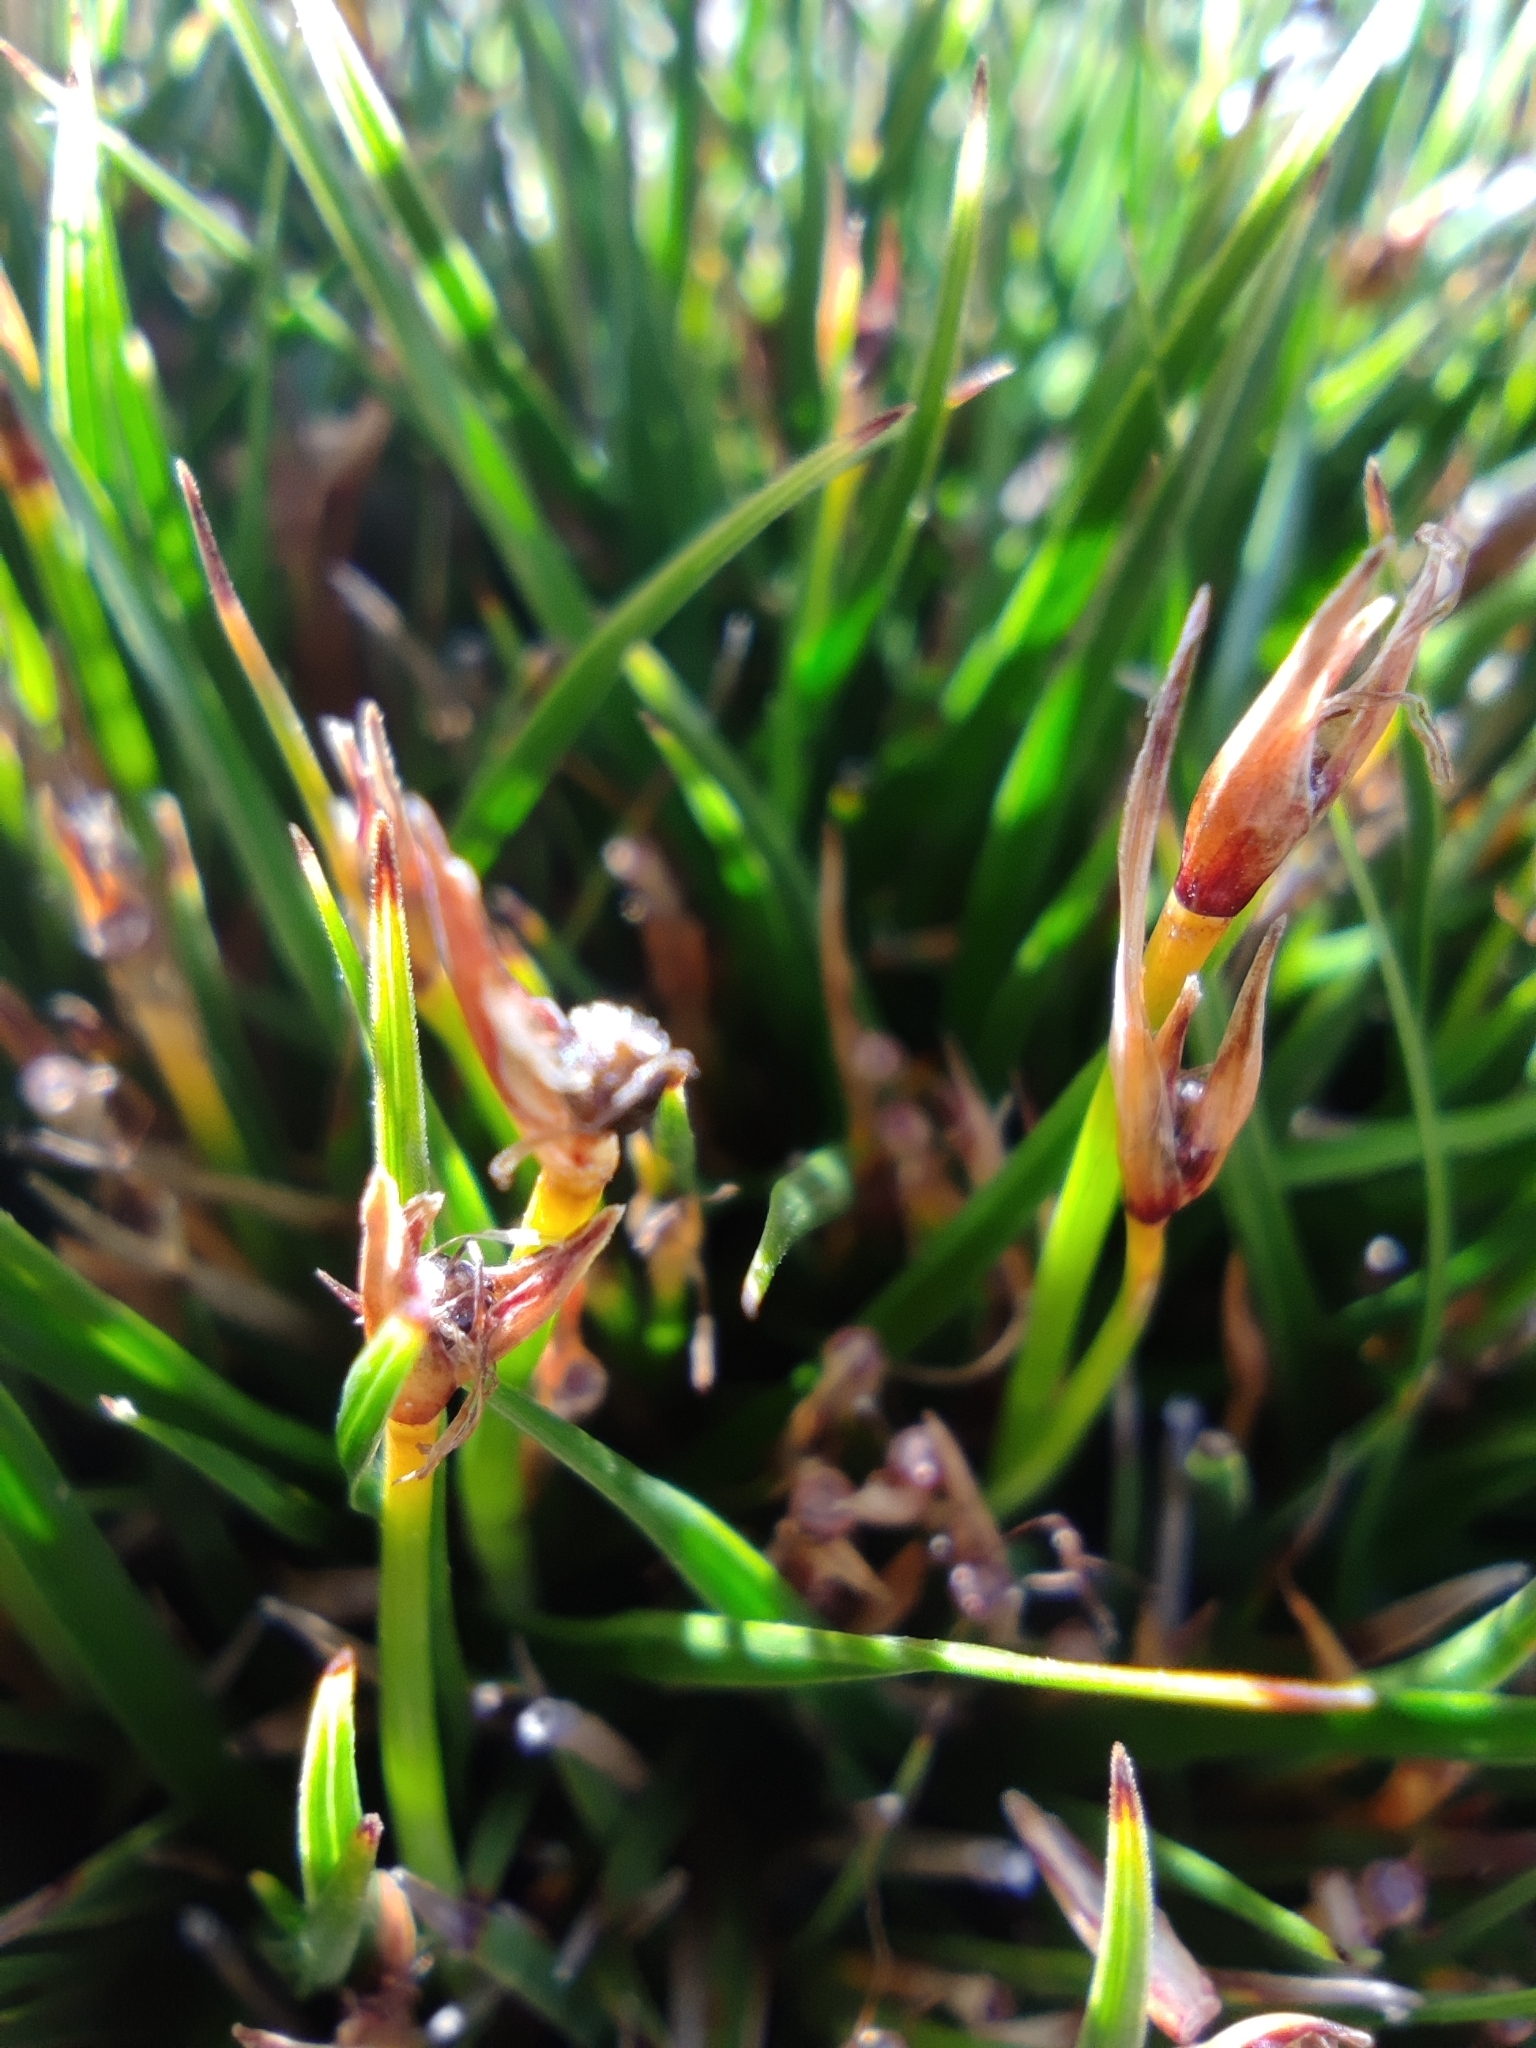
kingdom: Plantae
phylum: Tracheophyta
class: Liliopsida
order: Poales
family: Cyperaceae
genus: Oreobolus
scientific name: Oreobolus obtusangulus
